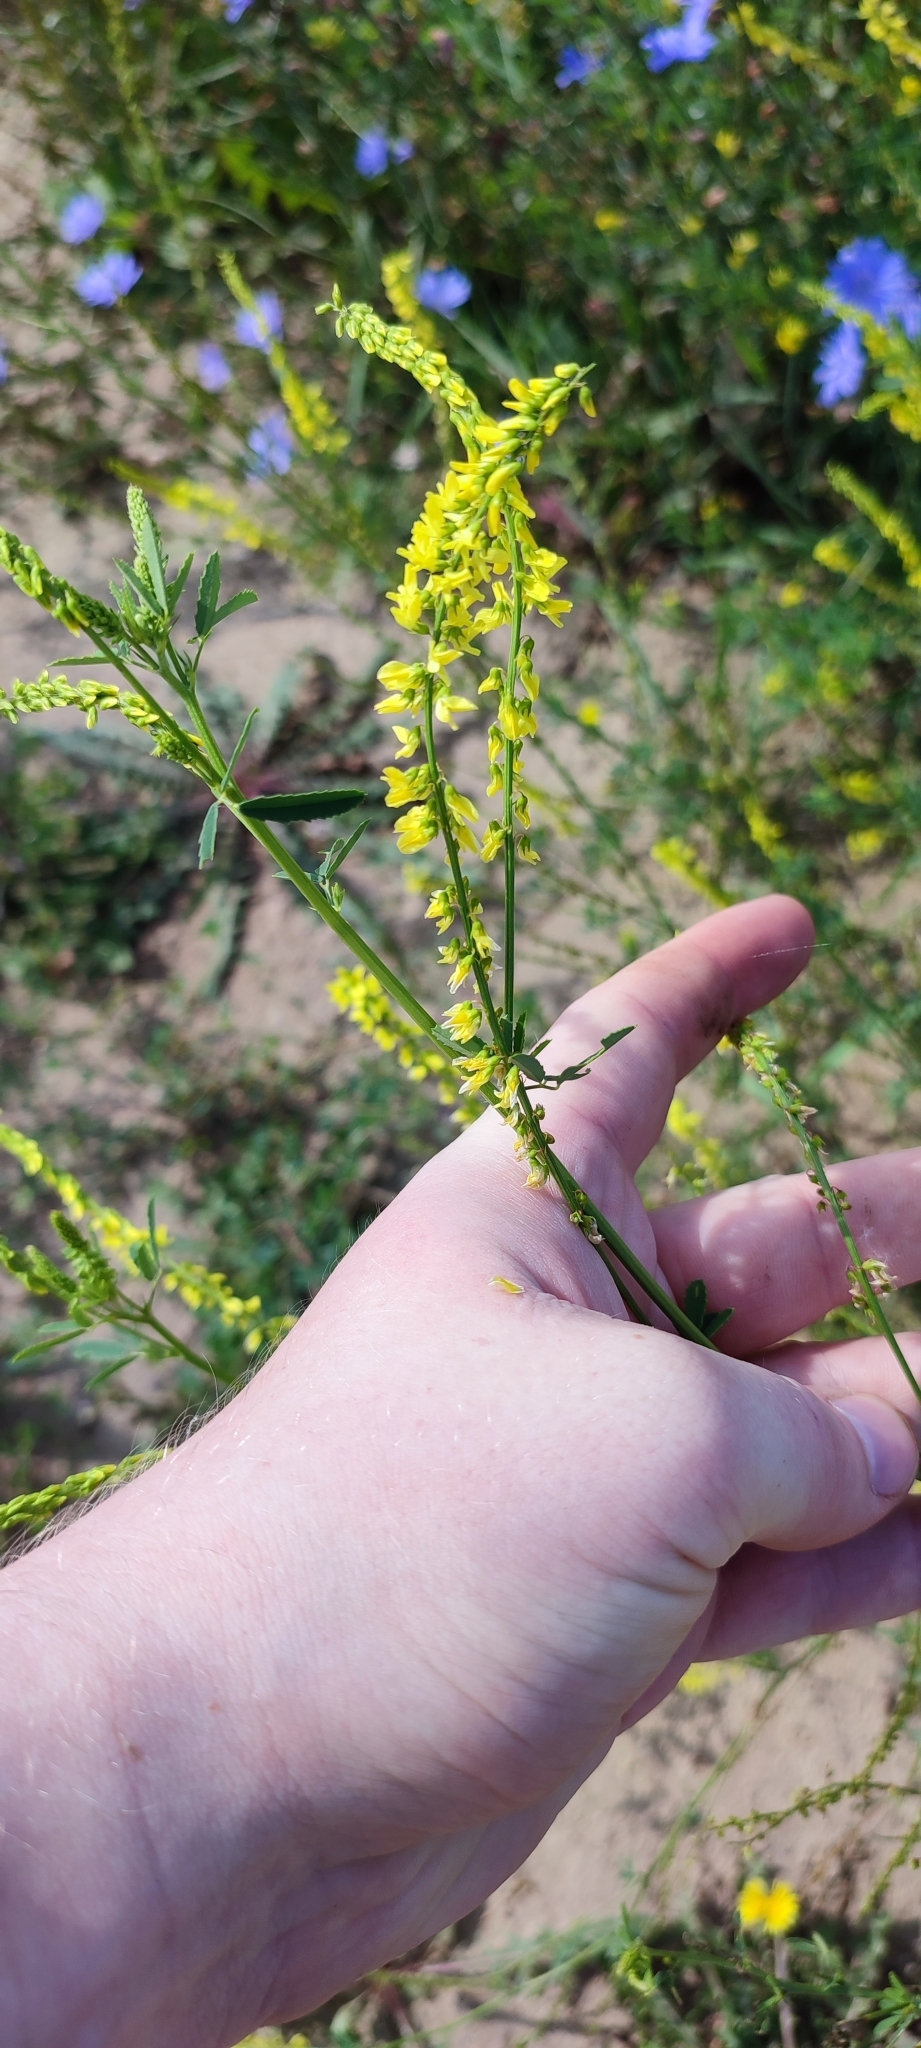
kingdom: Plantae
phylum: Tracheophyta
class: Magnoliopsida
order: Fabales
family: Fabaceae
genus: Melilotus
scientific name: Melilotus officinalis
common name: Sweetclover
